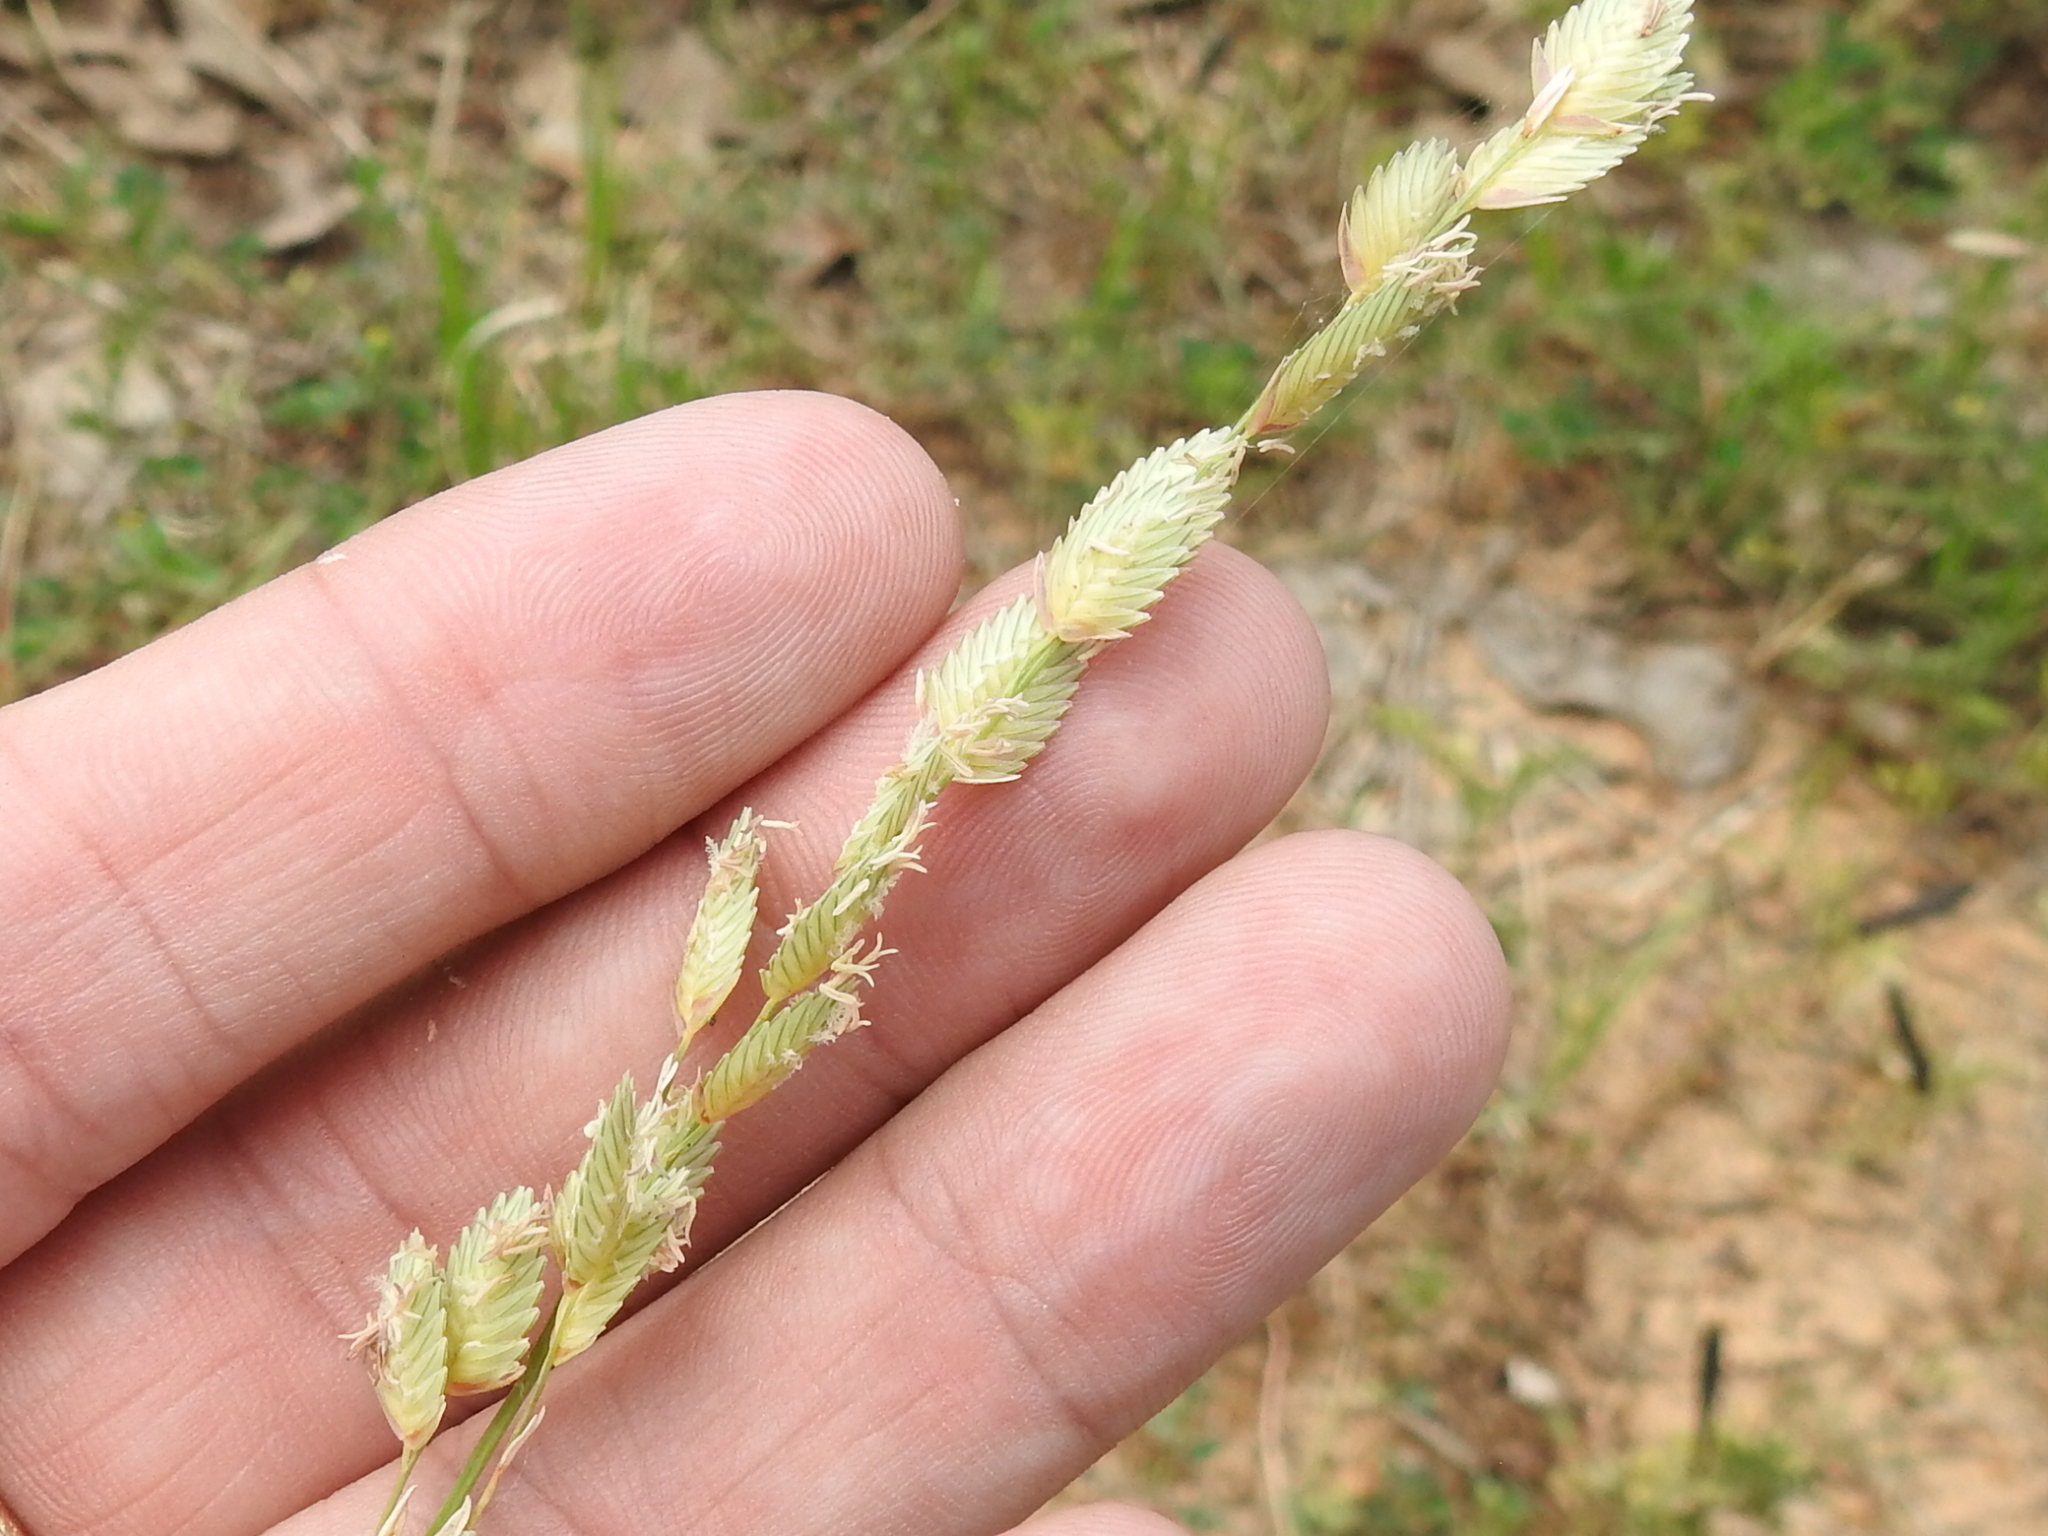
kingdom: Plantae
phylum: Tracheophyta
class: Liliopsida
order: Poales
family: Poaceae
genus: Eragrostis
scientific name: Eragrostis superba
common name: Wilman lovegrass
